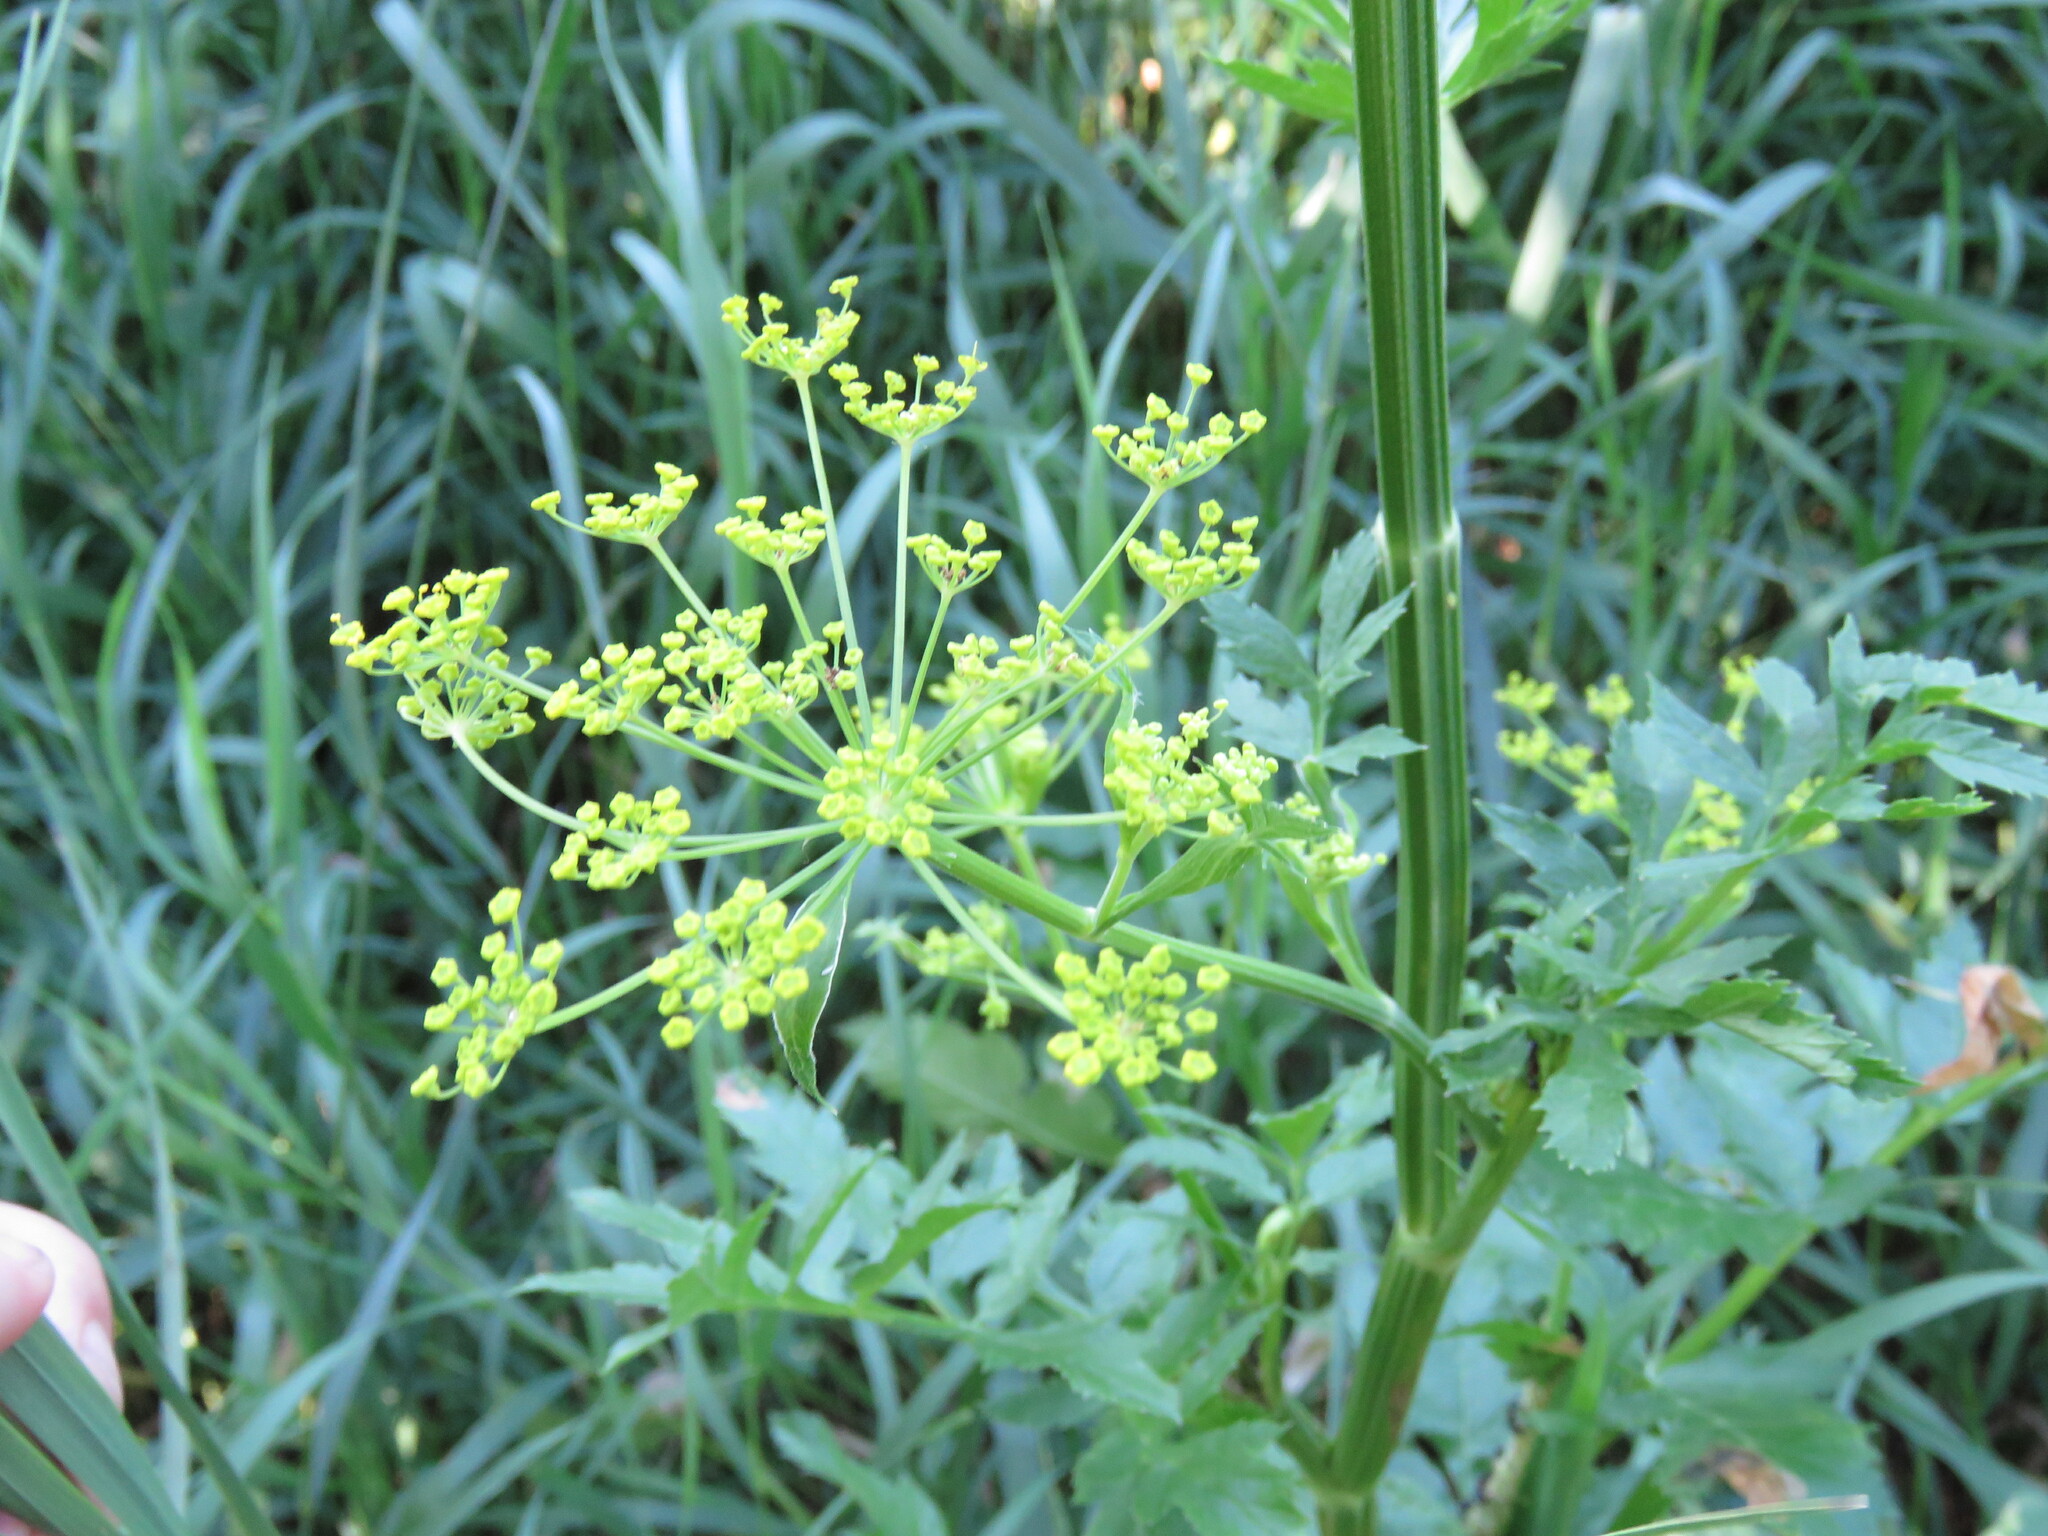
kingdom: Plantae
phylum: Tracheophyta
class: Magnoliopsida
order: Apiales
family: Apiaceae
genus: Pastinaca
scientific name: Pastinaca sativa
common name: Wild parsnip
